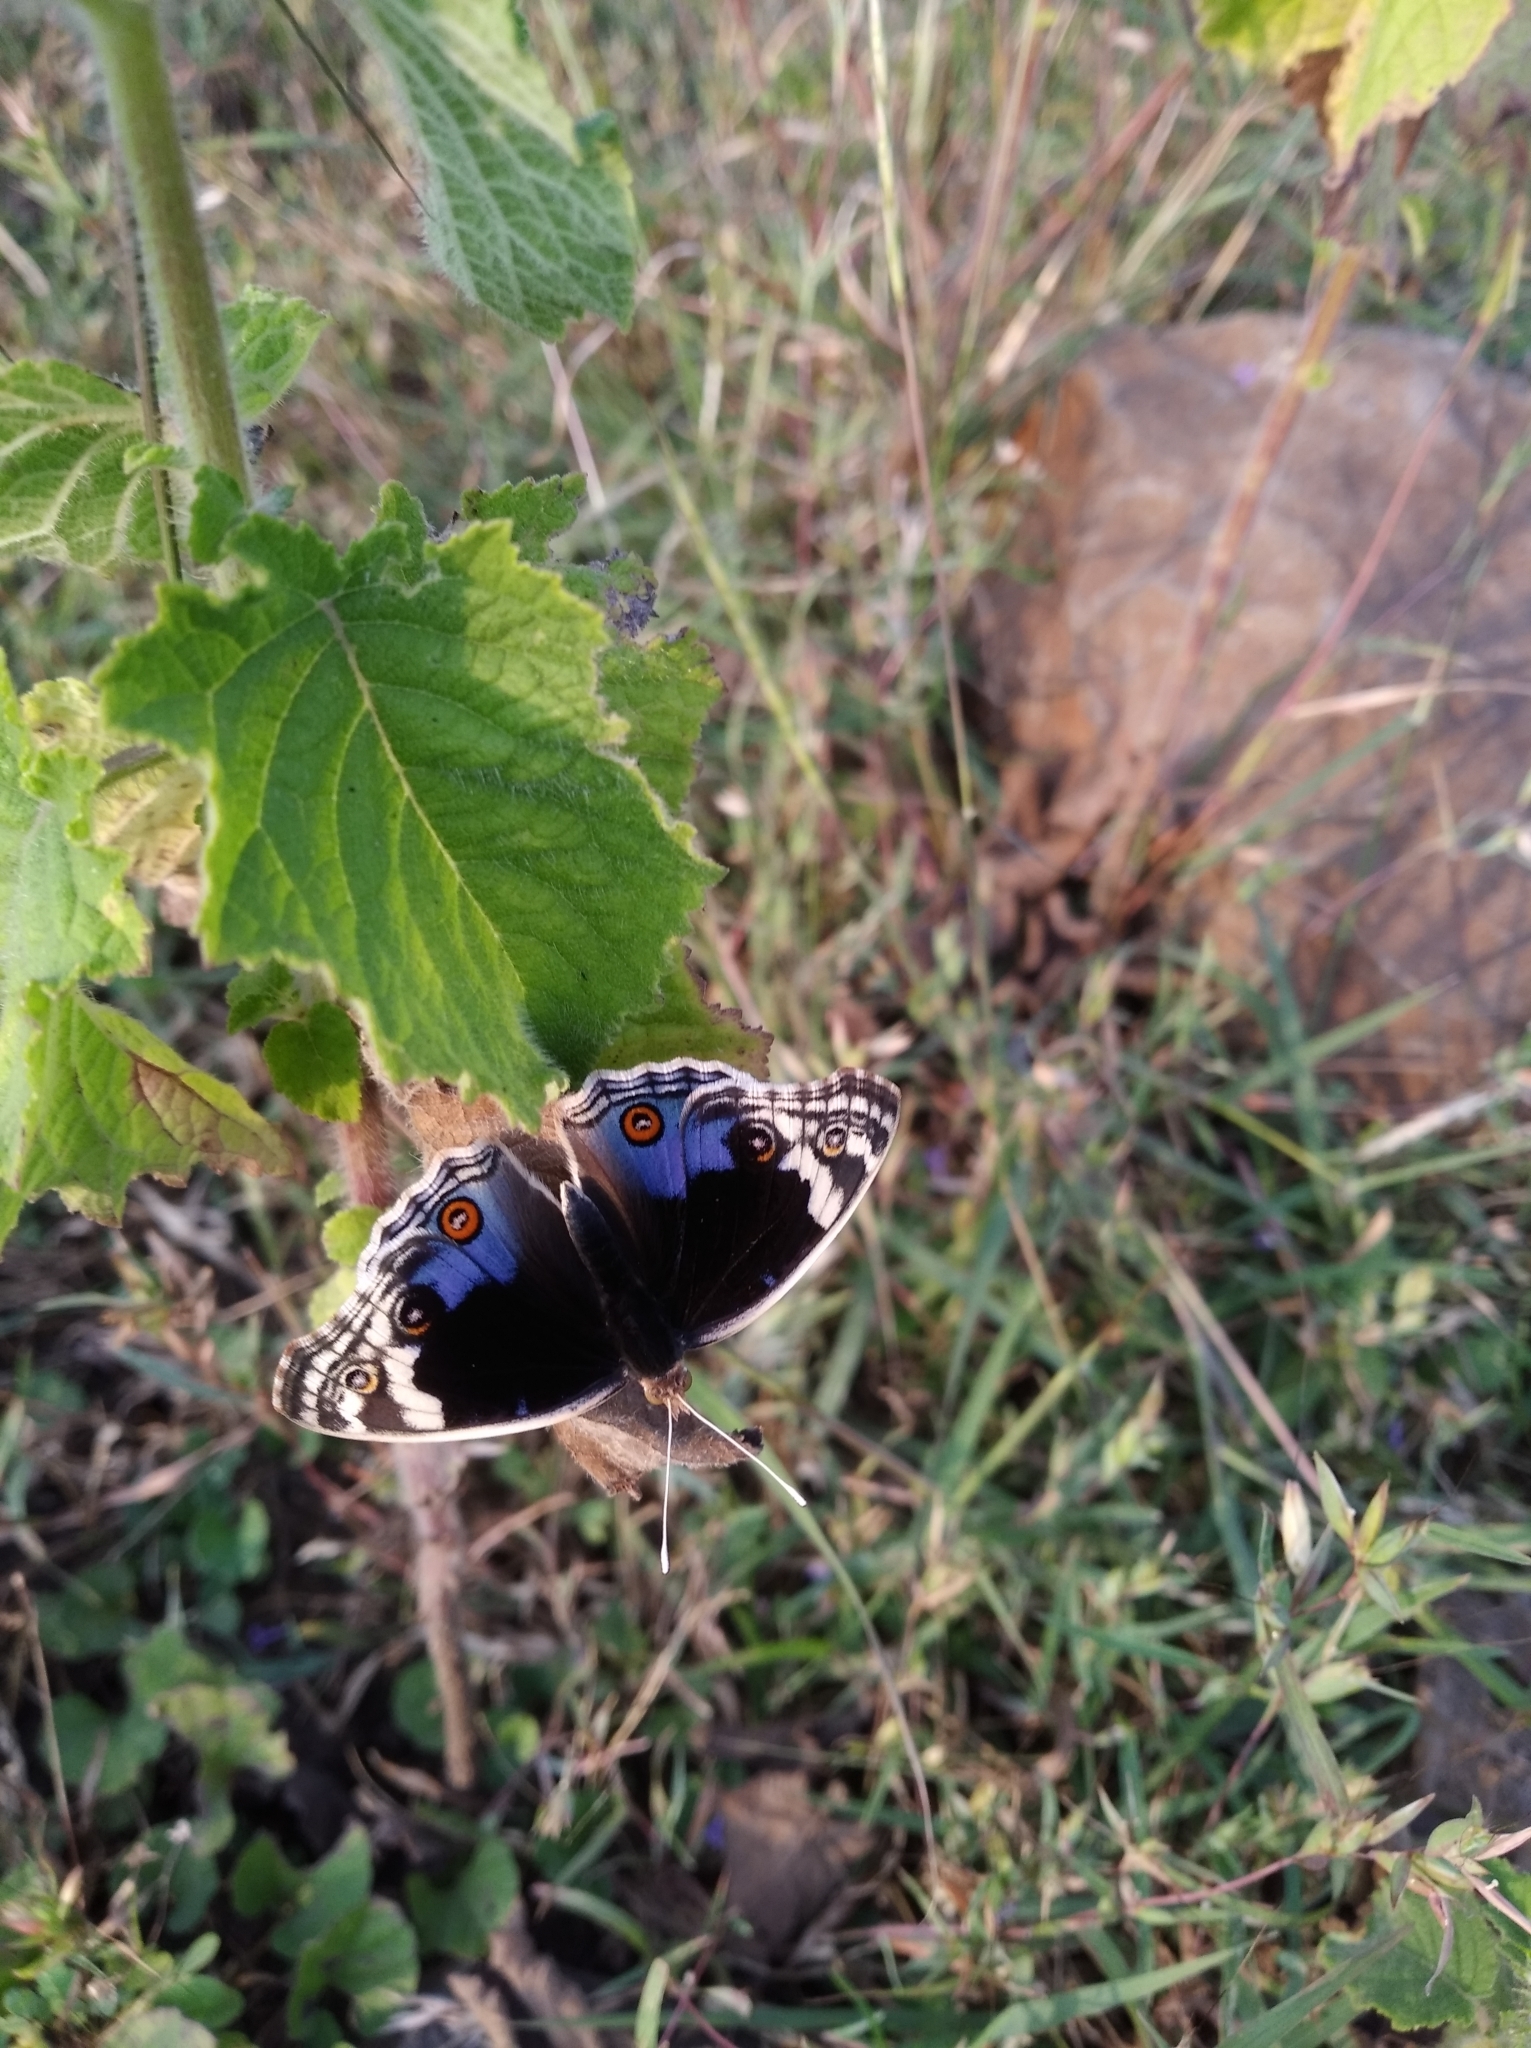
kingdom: Animalia
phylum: Arthropoda
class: Insecta
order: Lepidoptera
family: Nymphalidae
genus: Junonia
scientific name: Junonia orithya
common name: Blue pansy
